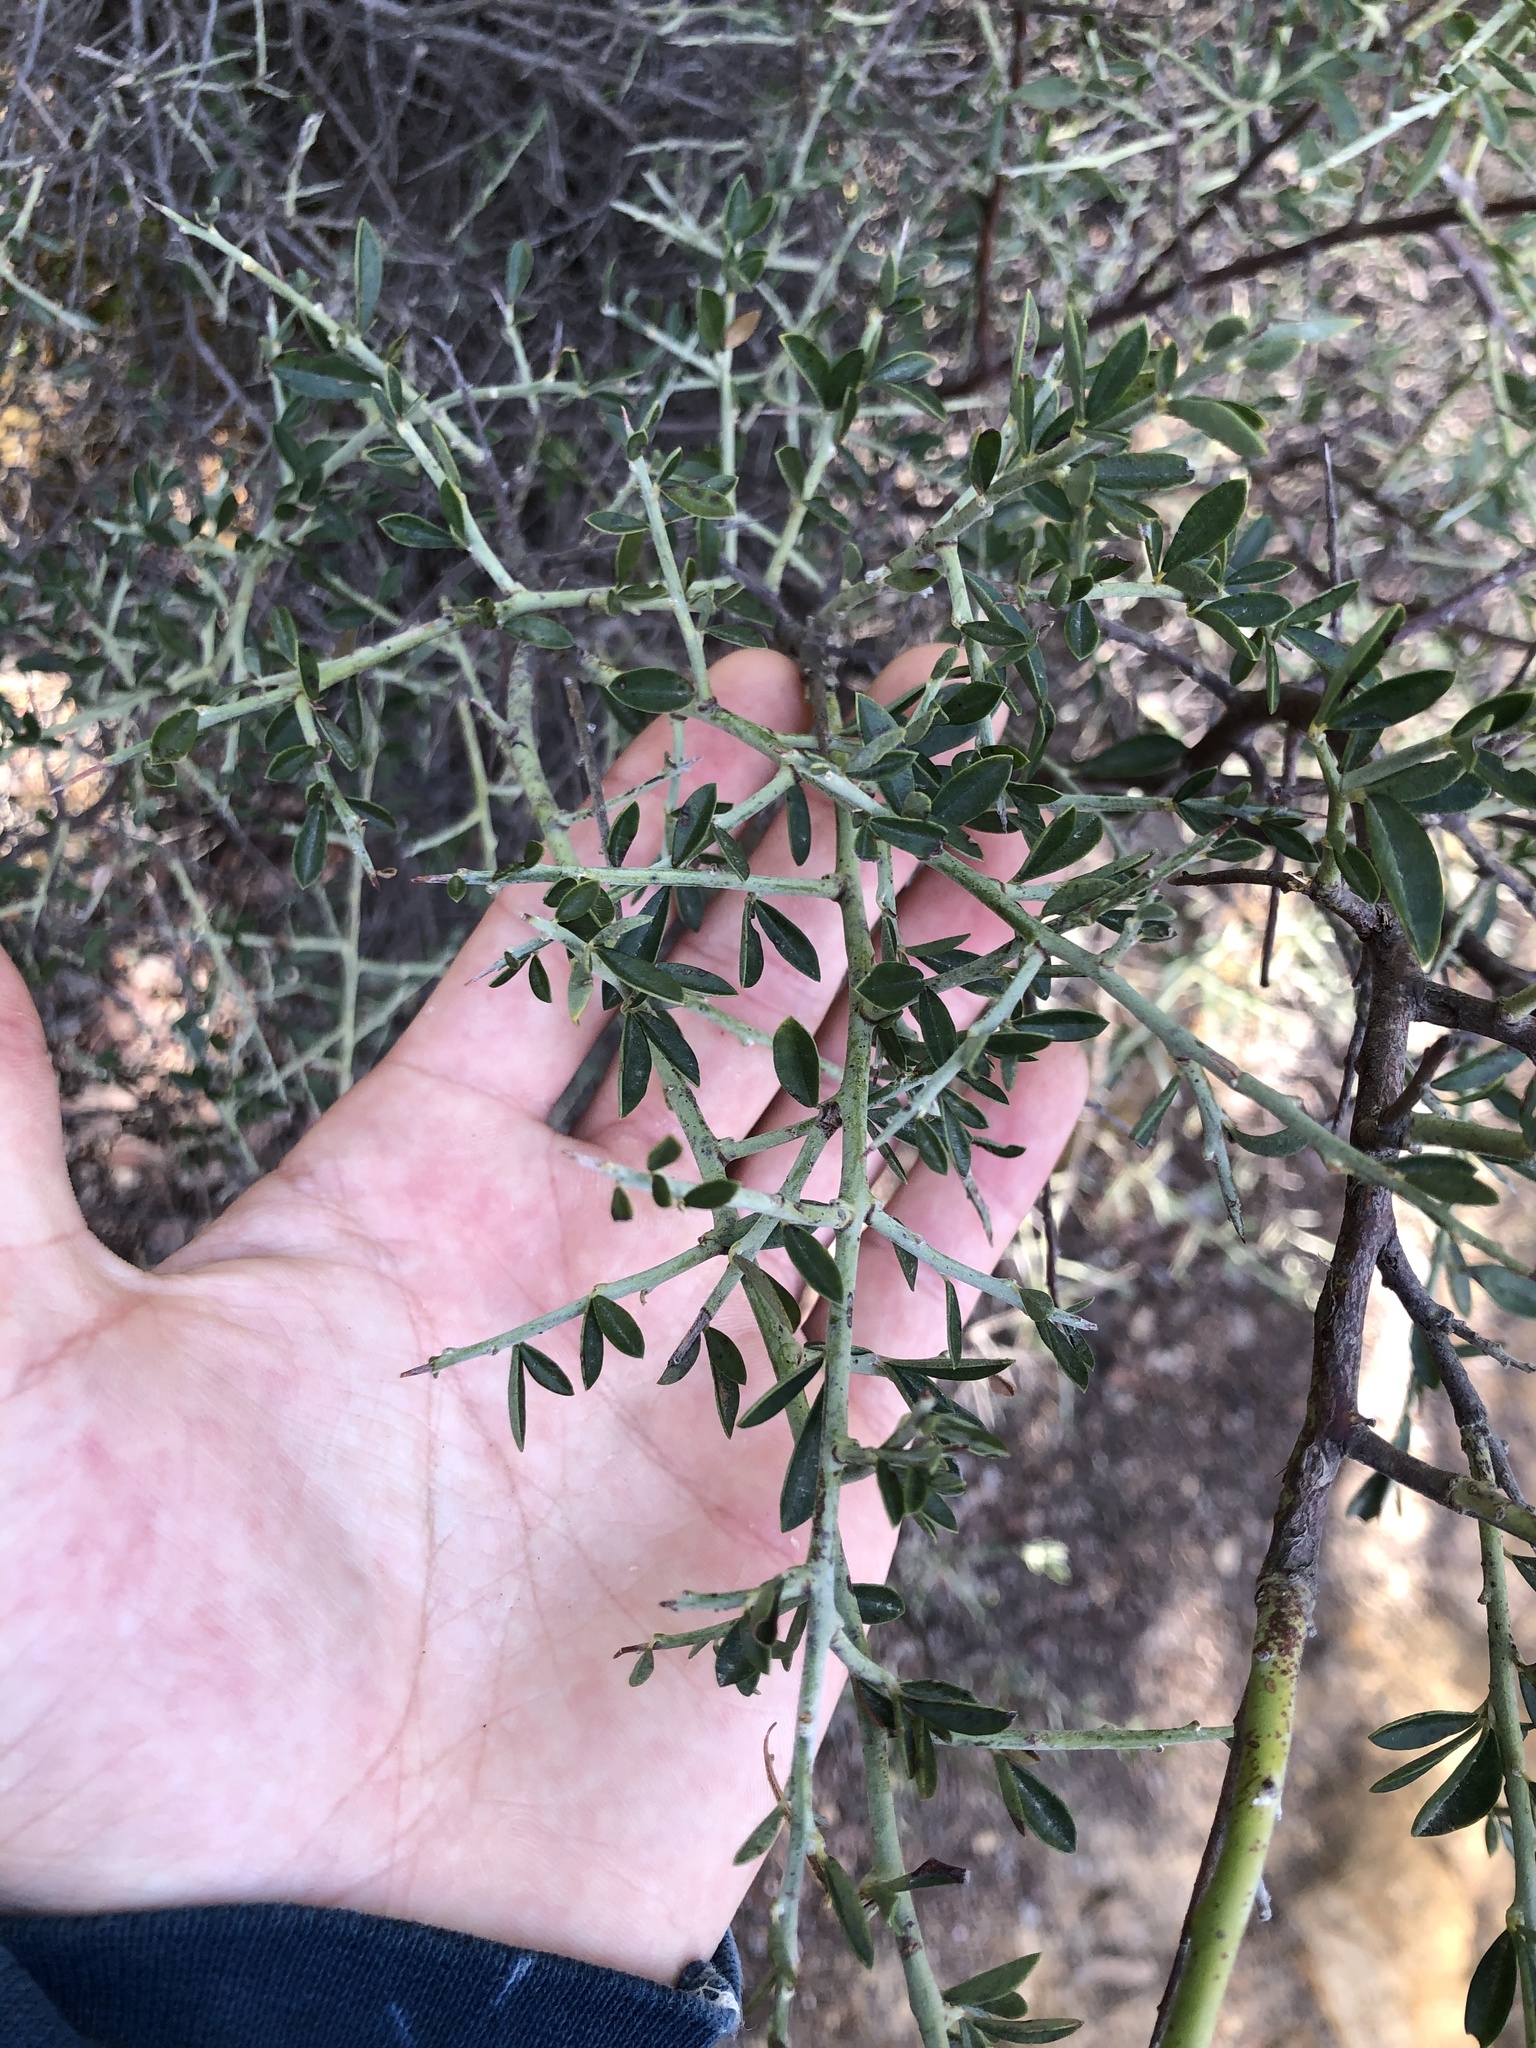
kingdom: Plantae
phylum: Tracheophyta
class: Magnoliopsida
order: Fabales
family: Fabaceae
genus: Pickeringia
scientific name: Pickeringia montana
